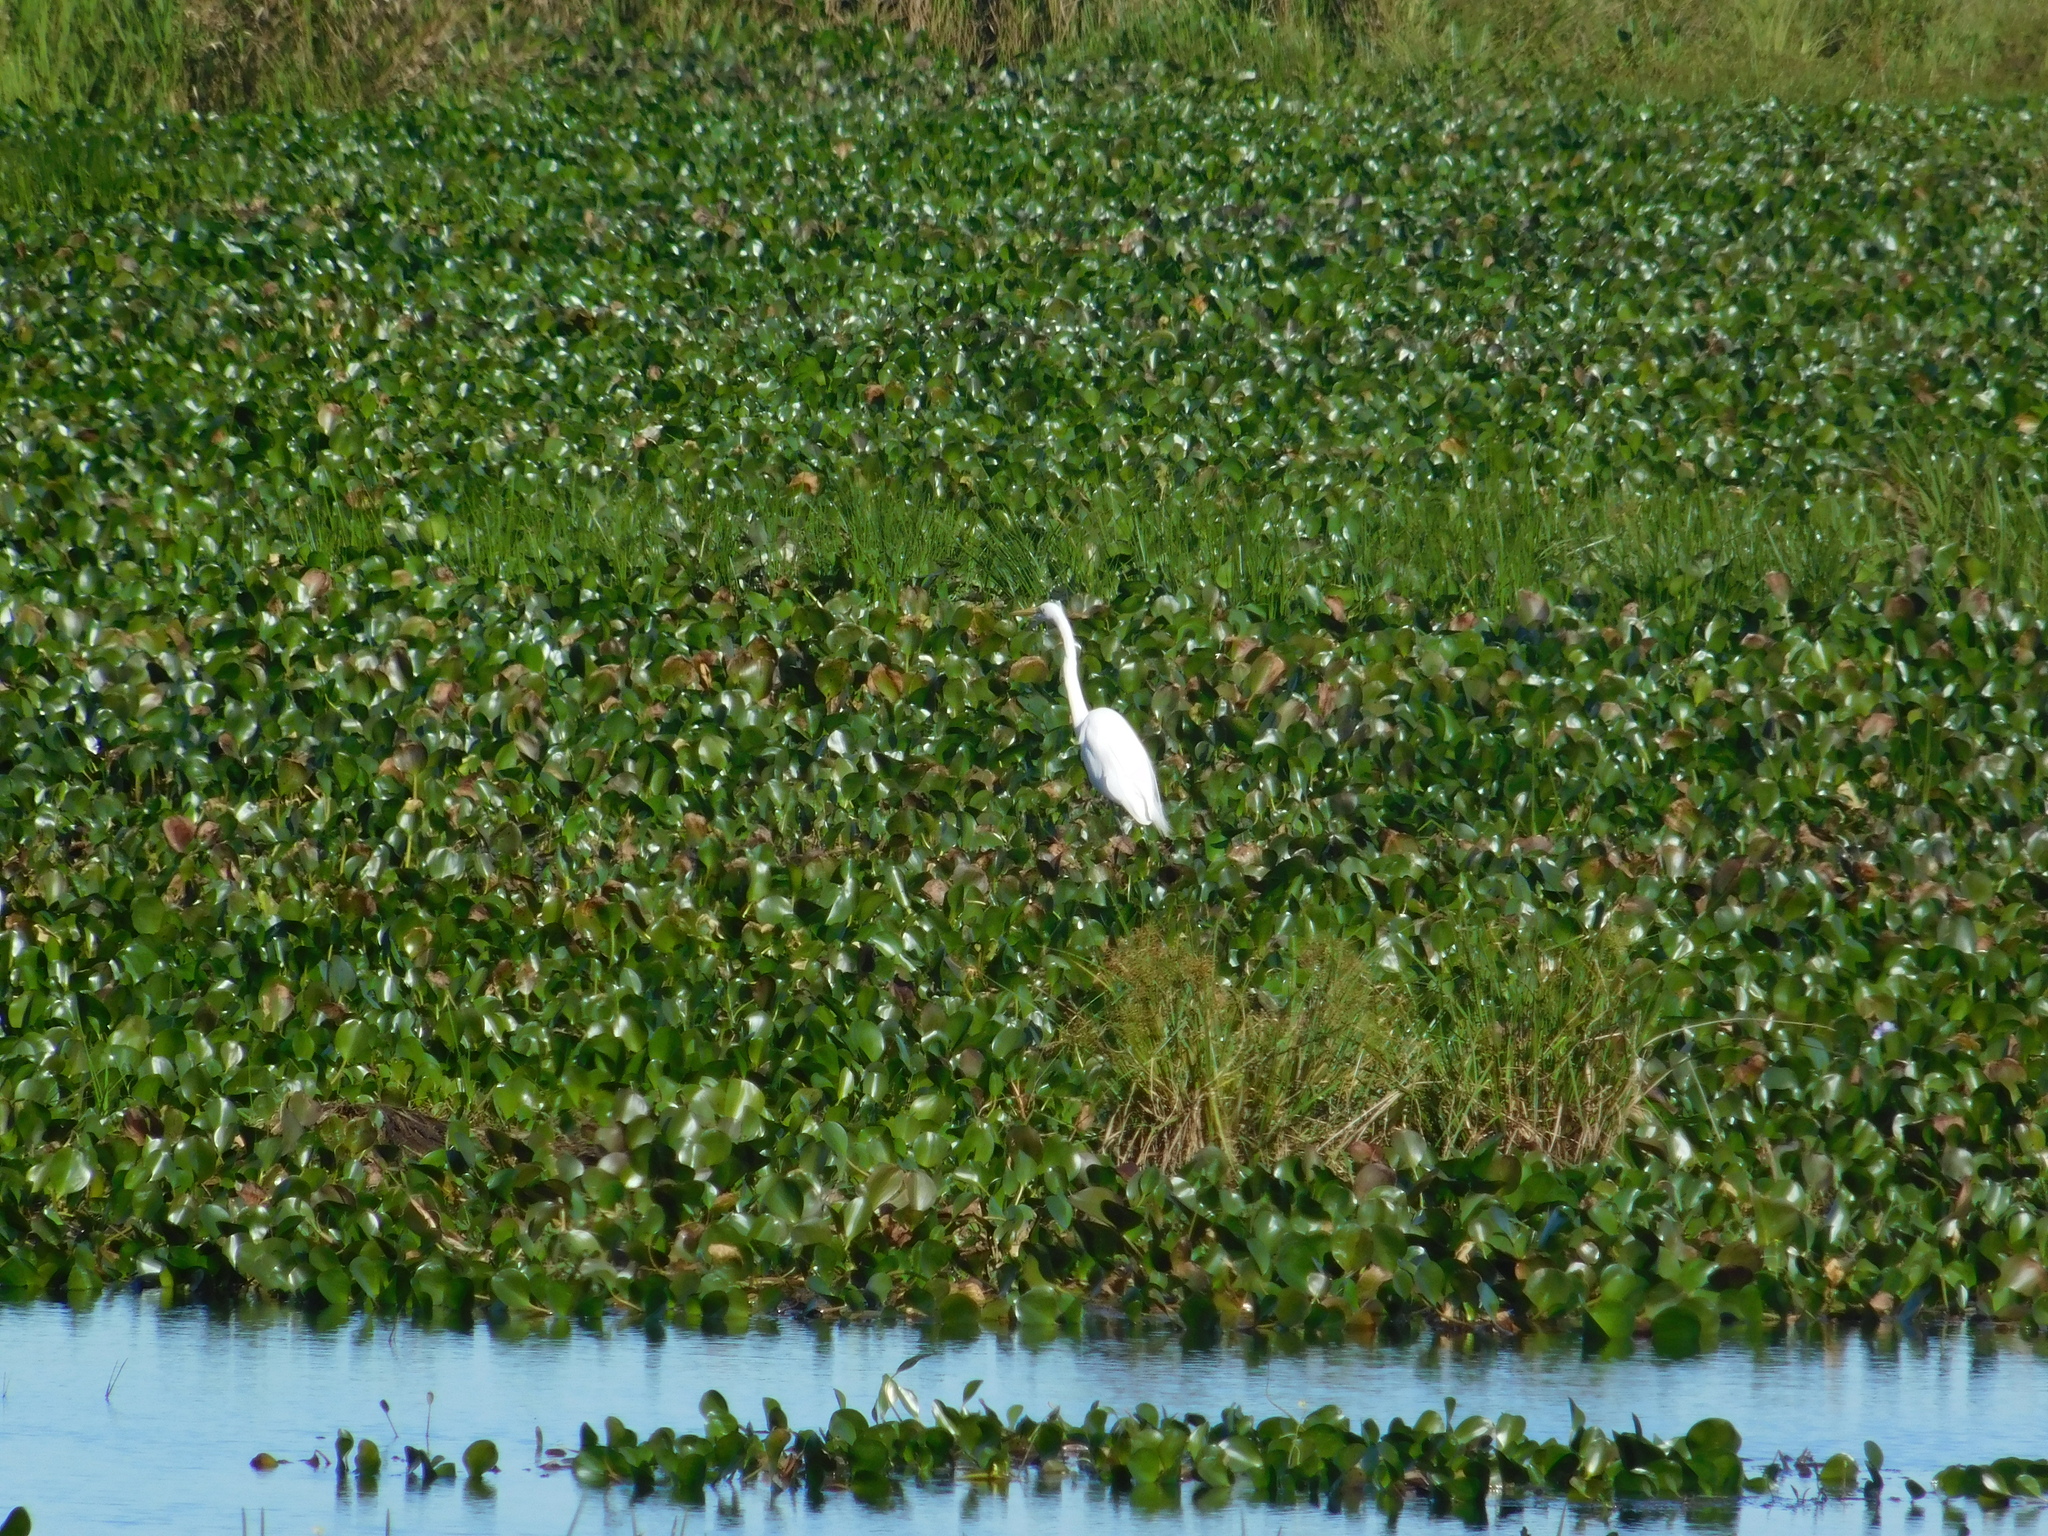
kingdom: Animalia
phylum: Chordata
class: Aves
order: Pelecaniformes
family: Ardeidae
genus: Ardea
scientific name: Ardea alba
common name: Great egret
